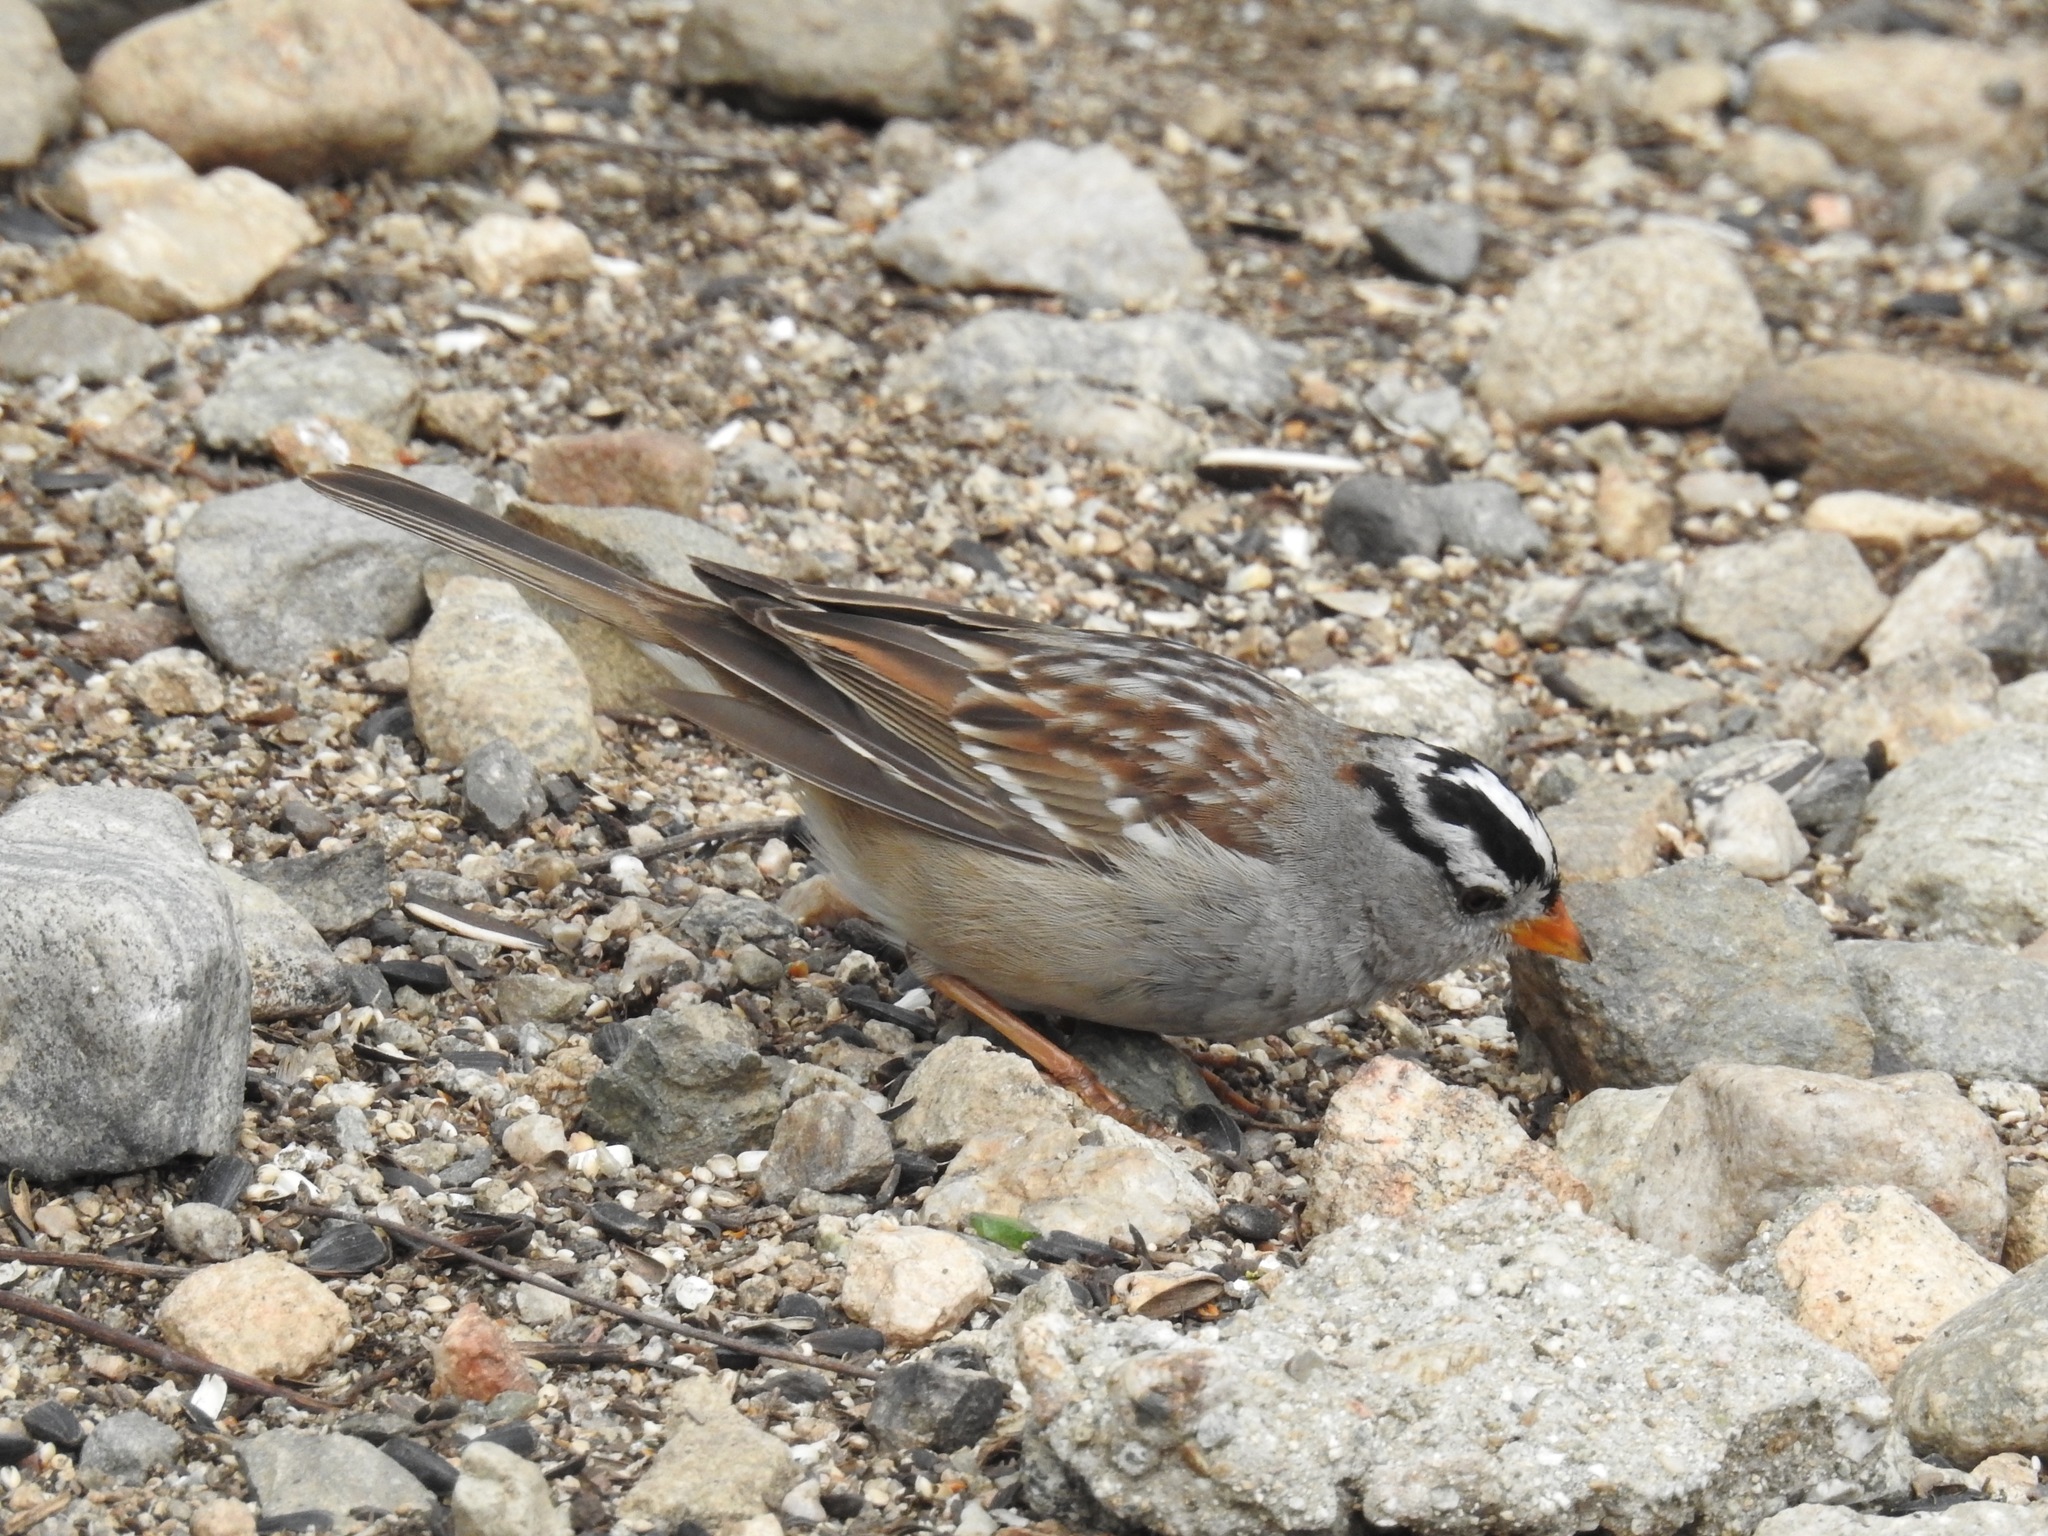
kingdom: Animalia
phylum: Chordata
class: Aves
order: Passeriformes
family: Passerellidae
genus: Zonotrichia
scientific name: Zonotrichia leucophrys
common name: White-crowned sparrow
